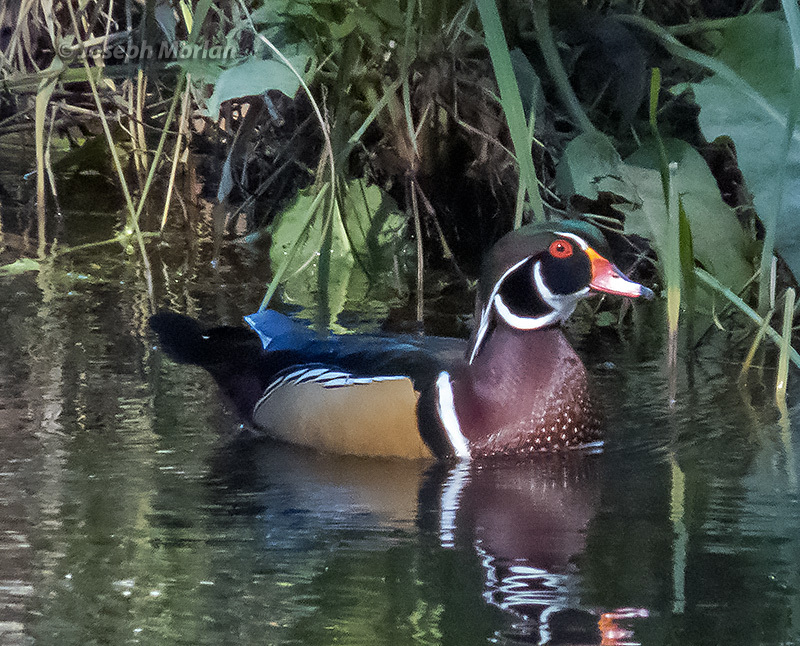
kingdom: Animalia
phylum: Chordata
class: Aves
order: Anseriformes
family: Anatidae
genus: Aix
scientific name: Aix sponsa
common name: Wood duck
